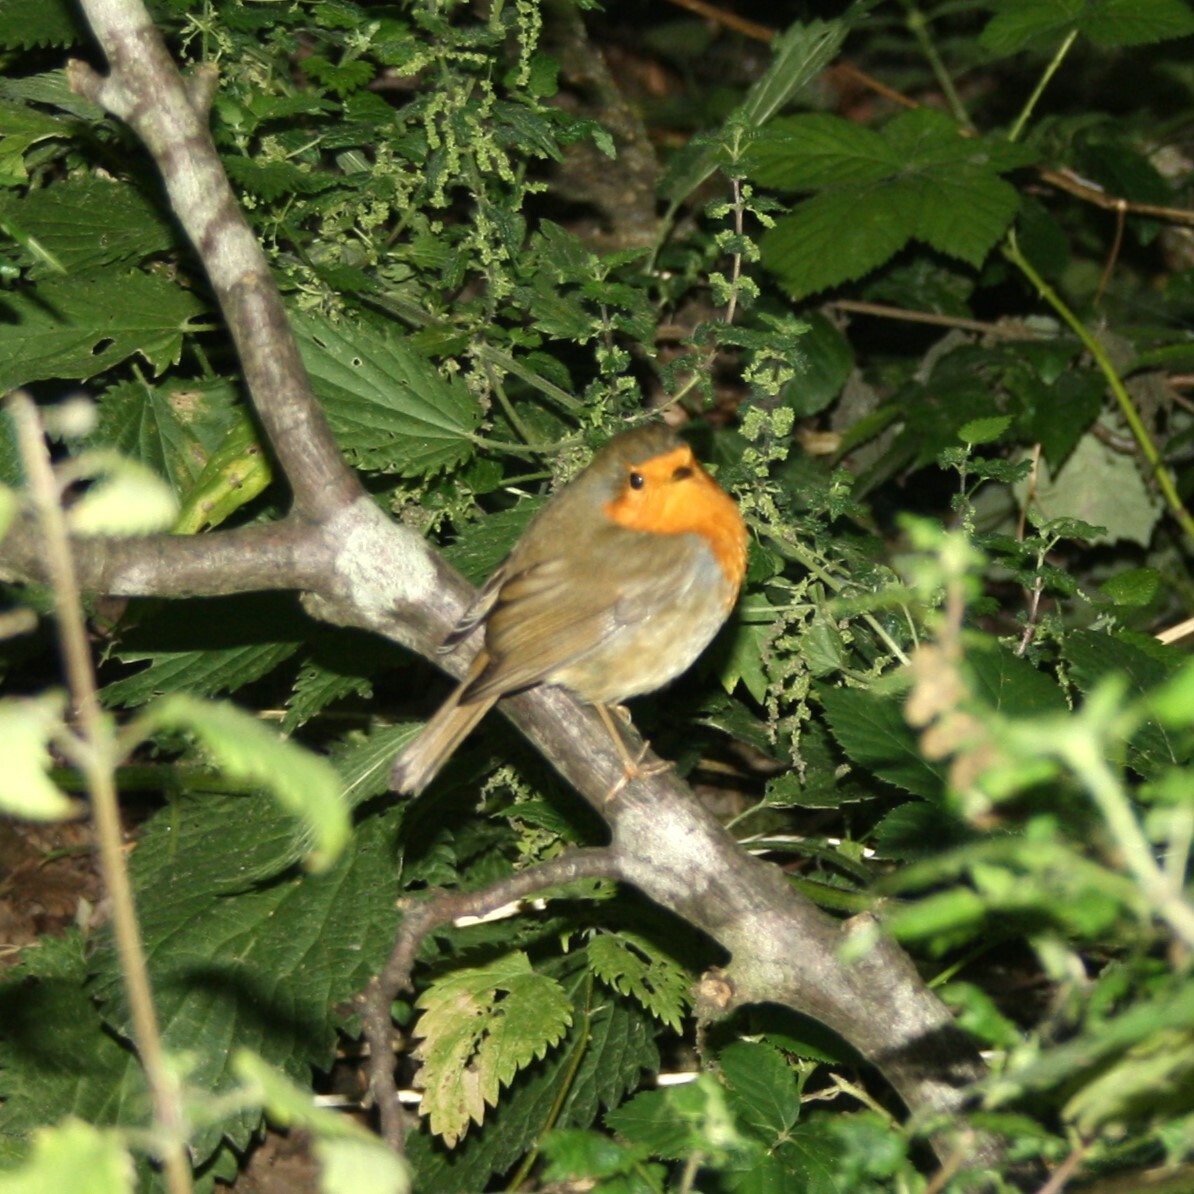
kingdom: Animalia
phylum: Chordata
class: Aves
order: Passeriformes
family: Muscicapidae
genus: Erithacus
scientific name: Erithacus rubecula
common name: European robin
